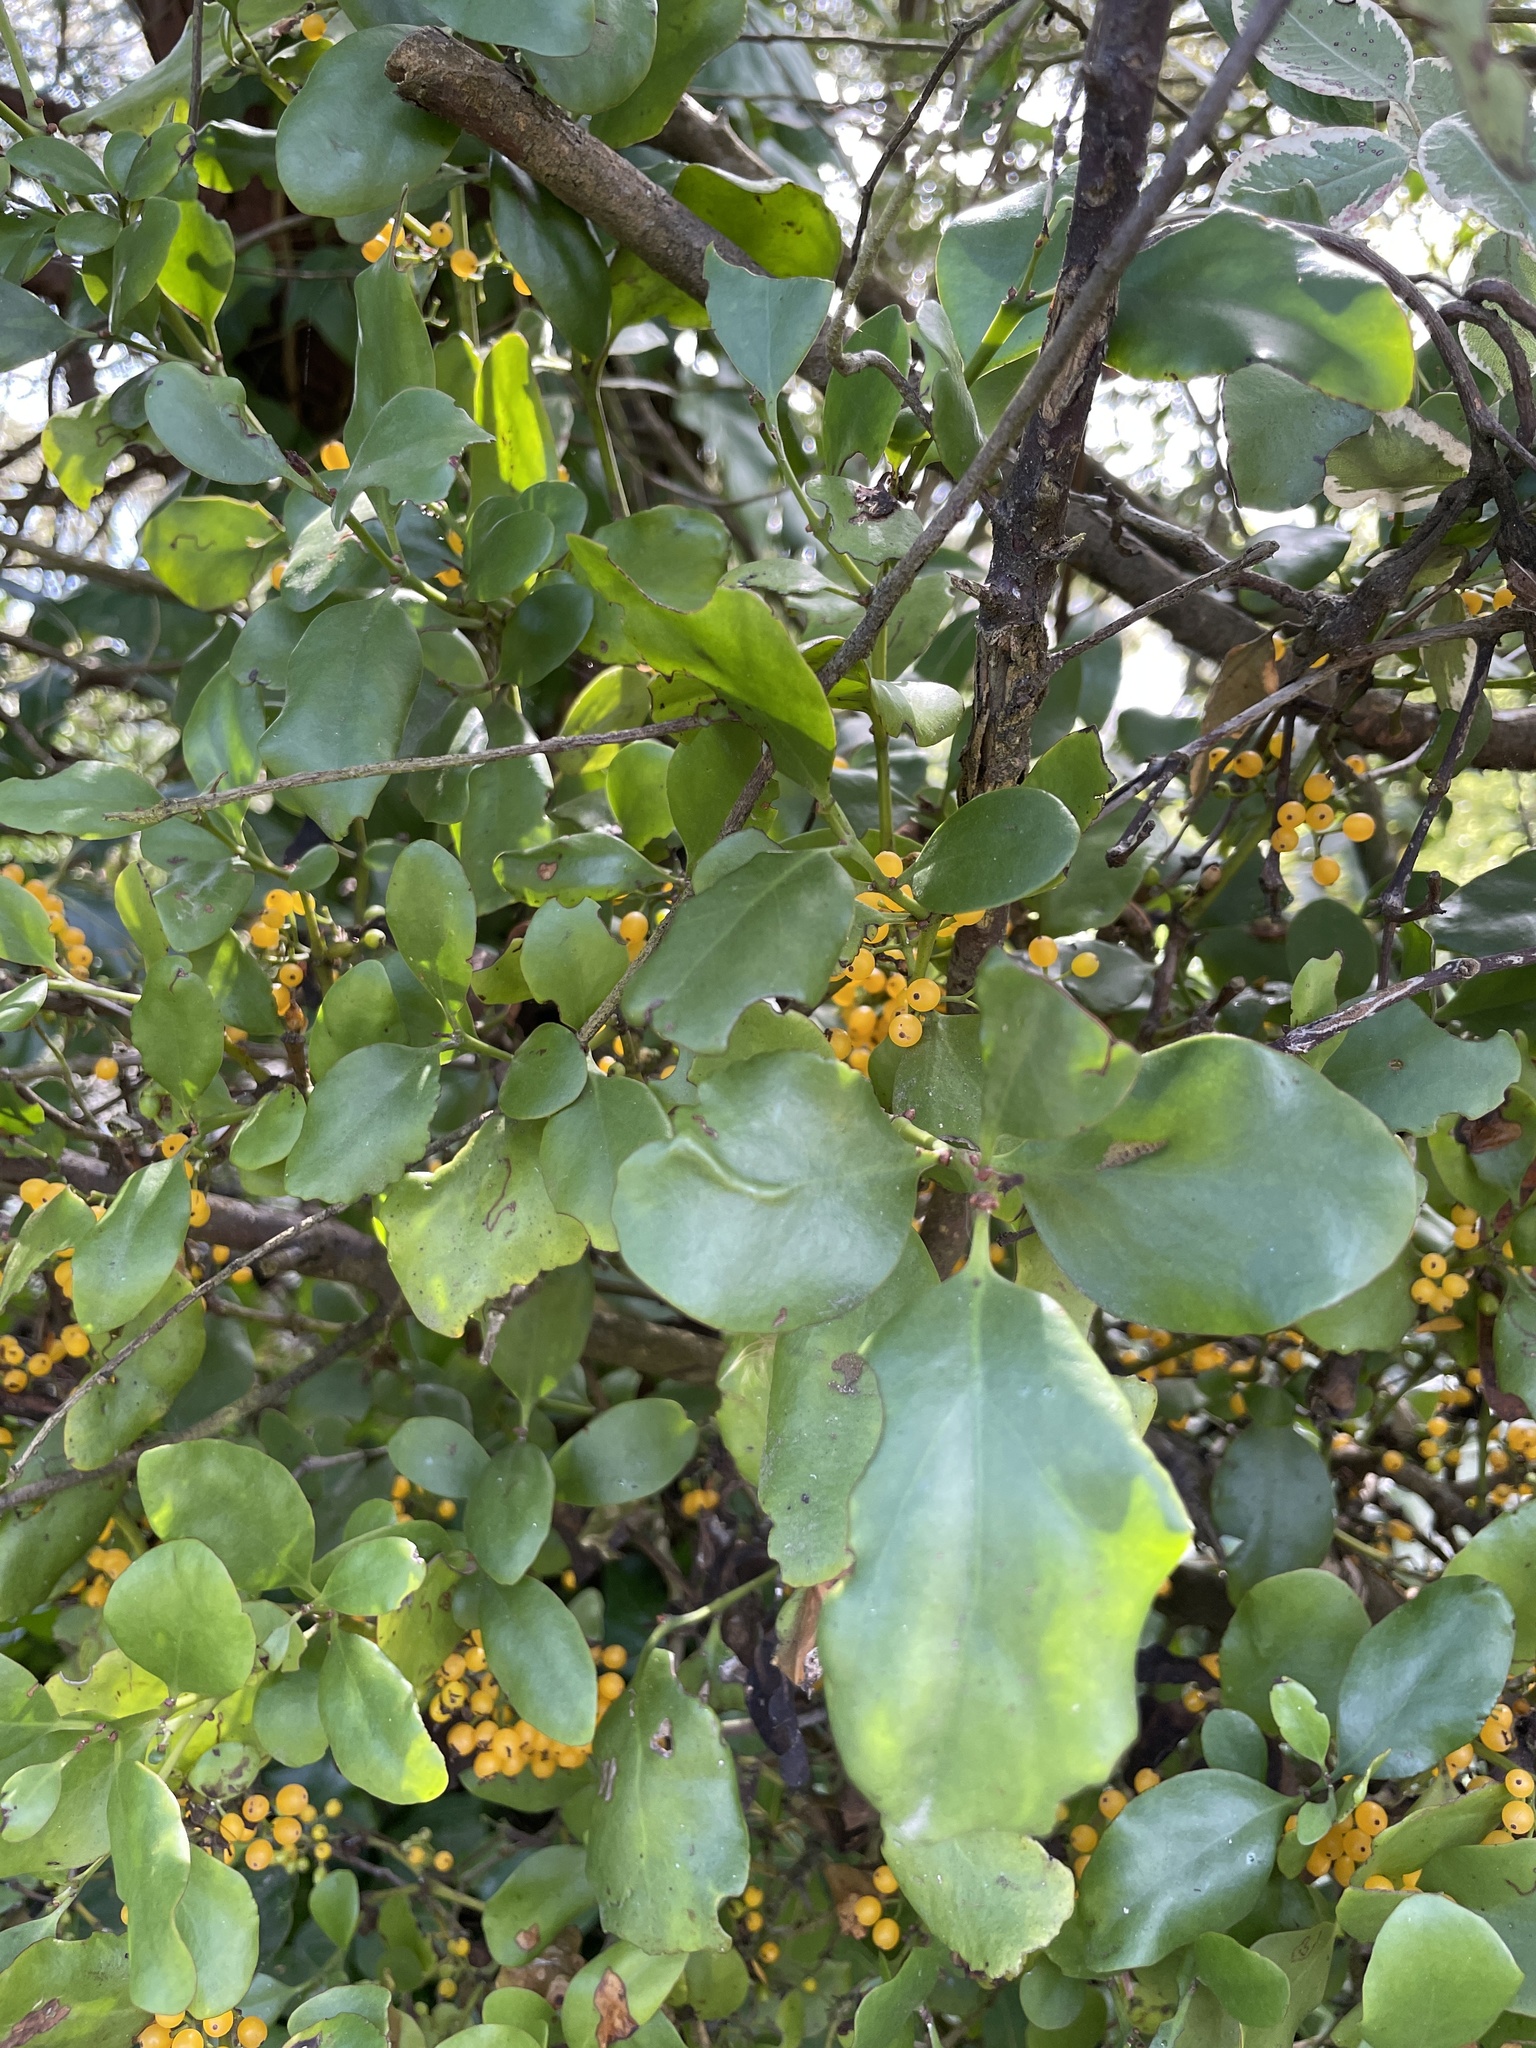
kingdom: Plantae
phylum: Tracheophyta
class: Magnoliopsida
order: Santalales
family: Loranthaceae
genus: Ileostylus
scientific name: Ileostylus micranthus
